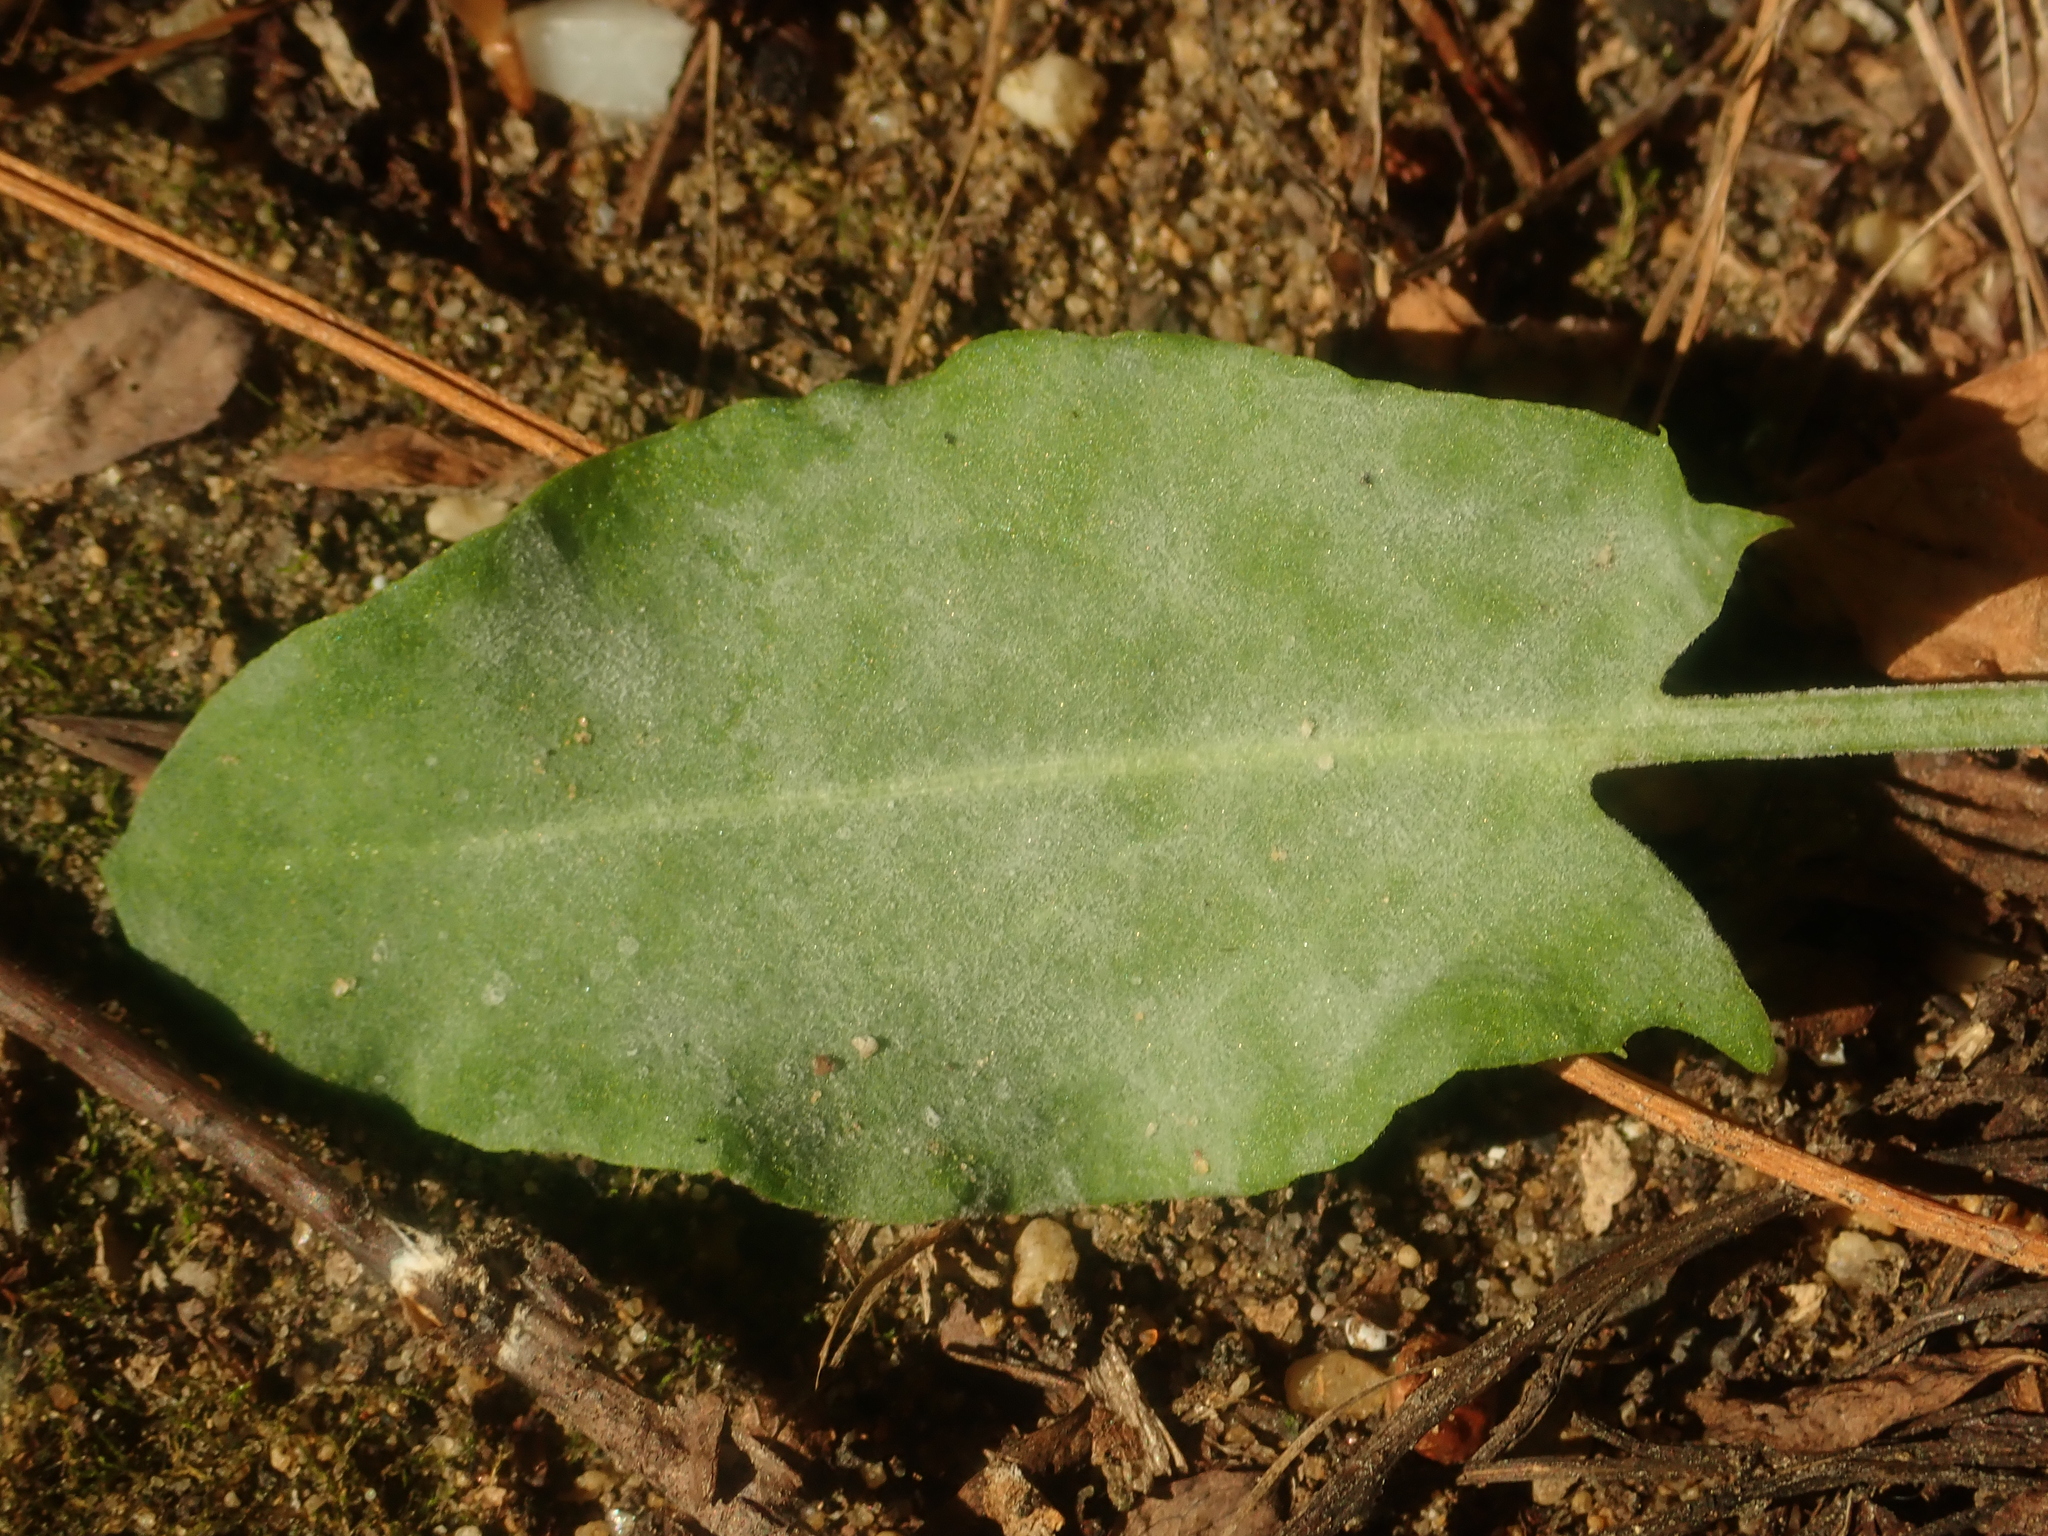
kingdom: Fungi
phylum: Ascomycota
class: Leotiomycetes
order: Helotiales
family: Erysiphaceae
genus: Erysiphe
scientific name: Erysiphe polygoni
